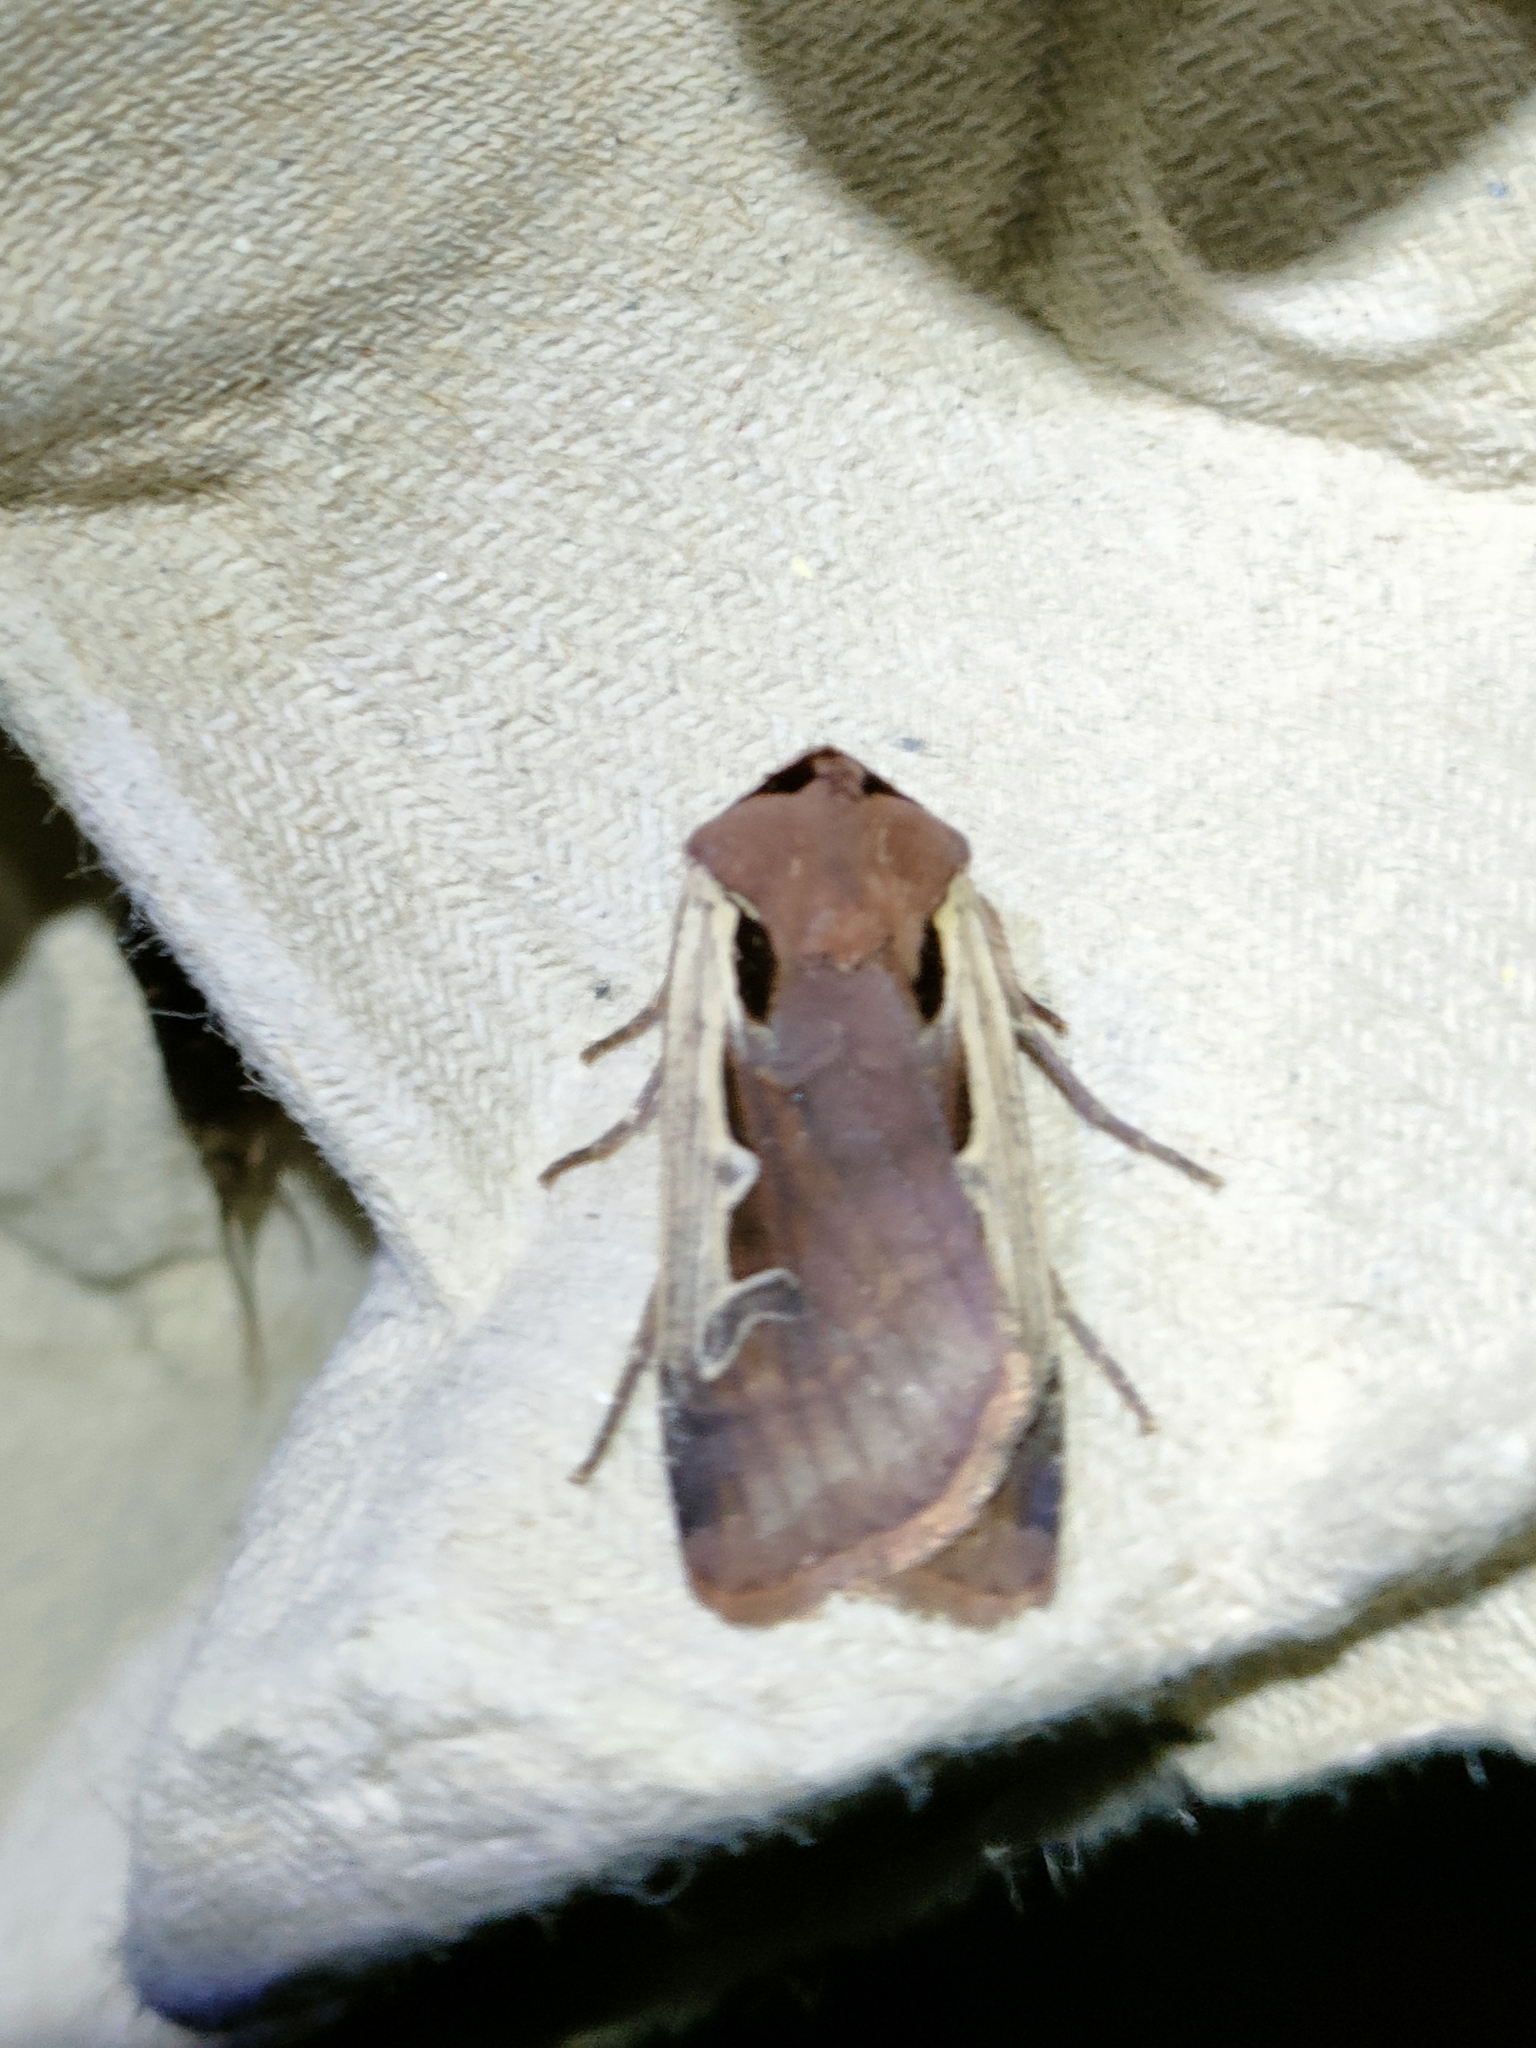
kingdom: Animalia
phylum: Arthropoda
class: Insecta
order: Lepidoptera
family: Noctuidae
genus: Dichagyris
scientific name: Dichagyris musiva
